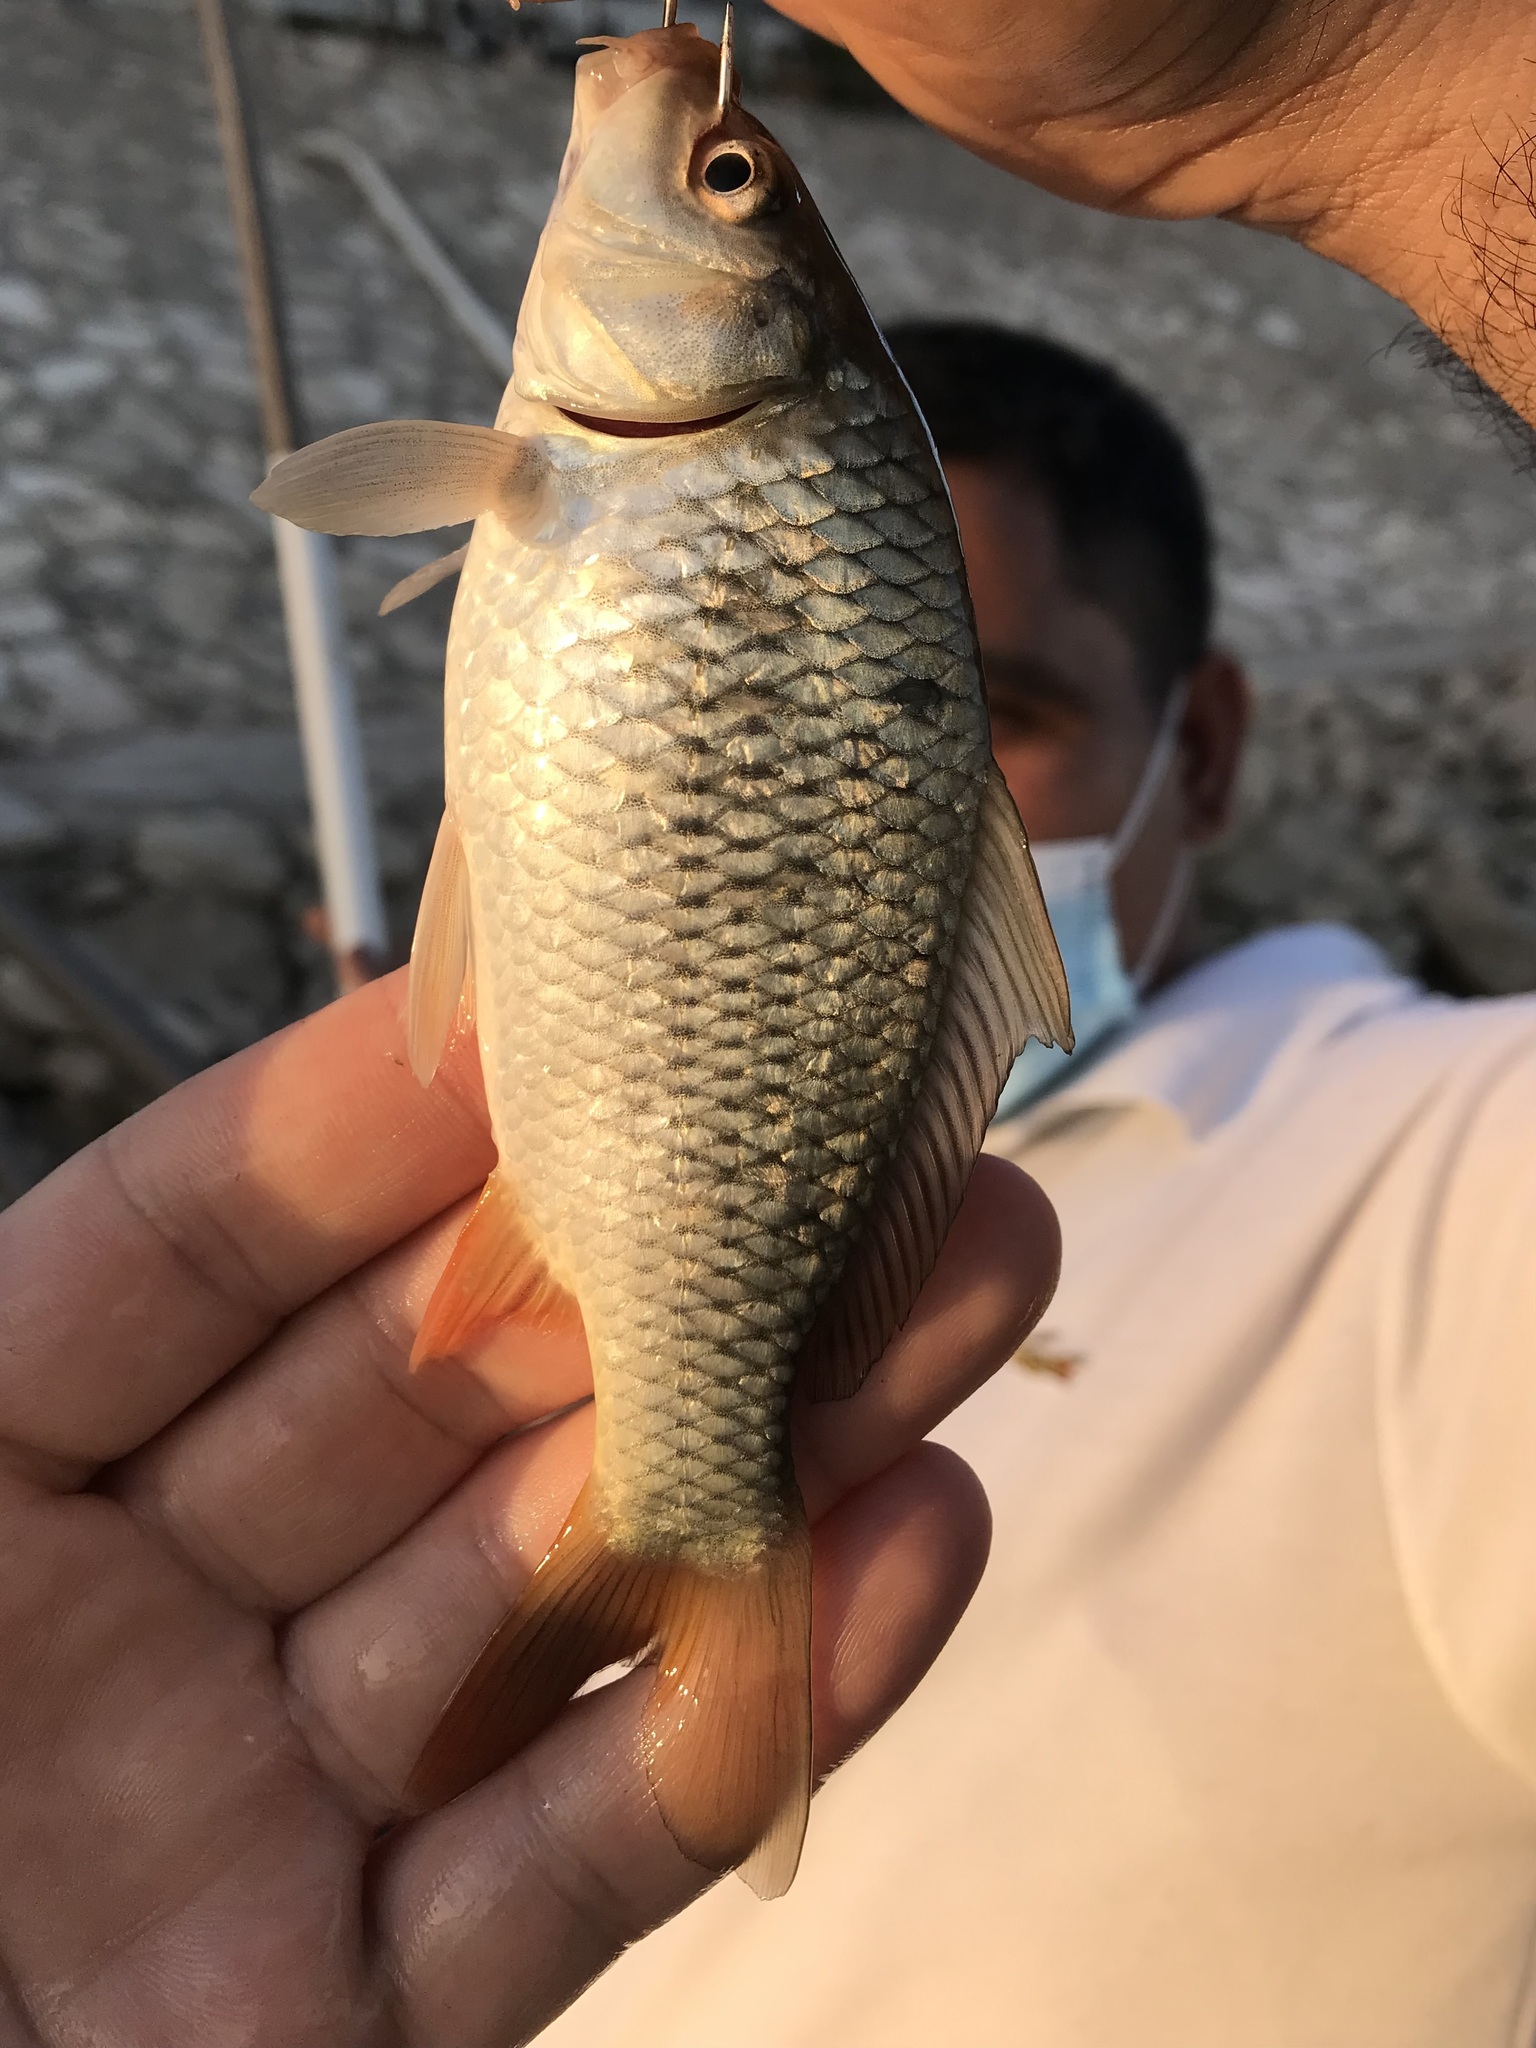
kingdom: Animalia
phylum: Chordata
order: Cypriniformes
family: Cyprinidae
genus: Cyprinus
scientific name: Cyprinus carpio
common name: Common carp
